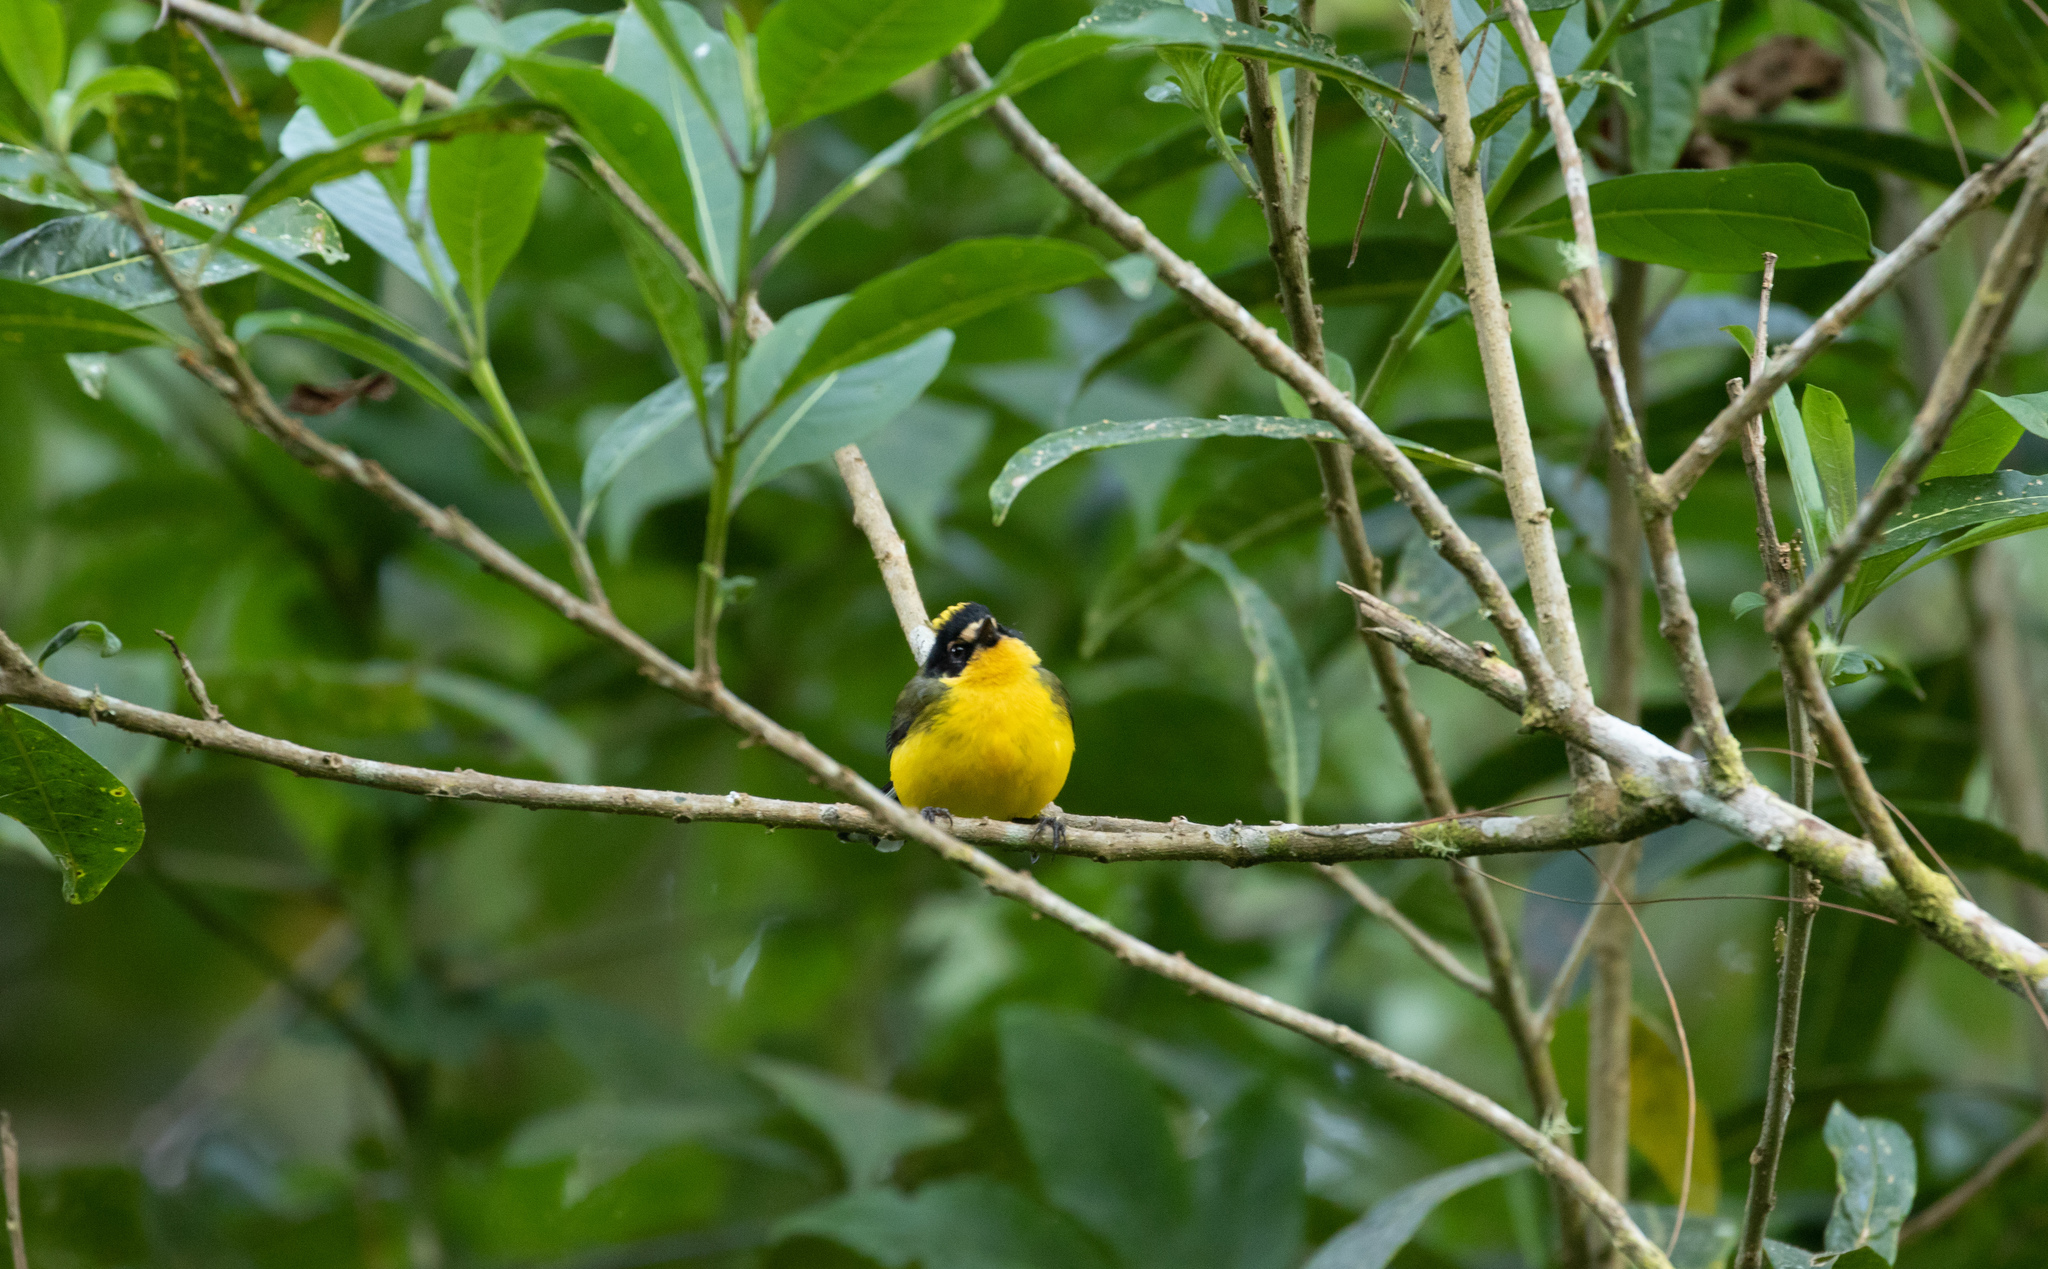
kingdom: Animalia
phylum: Chordata
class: Aves
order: Passeriformes
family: Parulidae
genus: Myioborus
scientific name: Myioborus flavivertex
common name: Yellow-crowned whitestart
